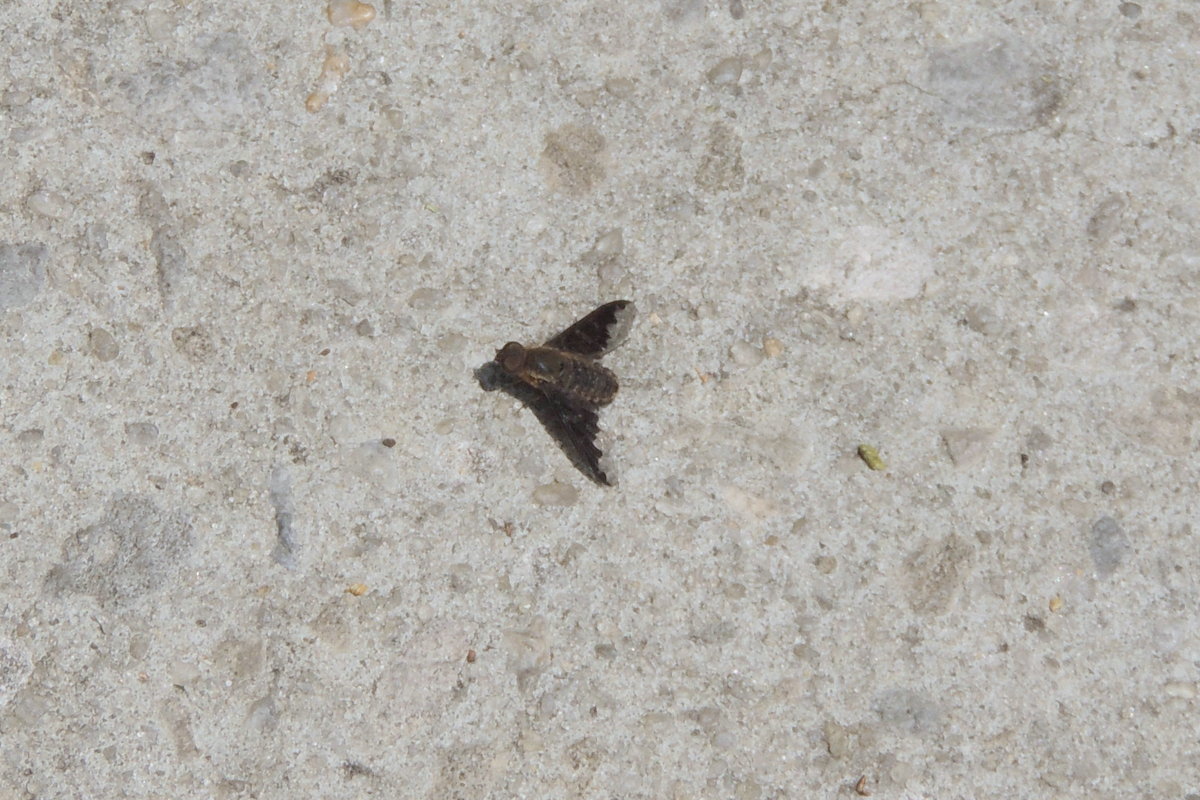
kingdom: Animalia
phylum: Arthropoda
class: Insecta
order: Diptera
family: Bombyliidae
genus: Hemipenthes
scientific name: Hemipenthes sinuosus
